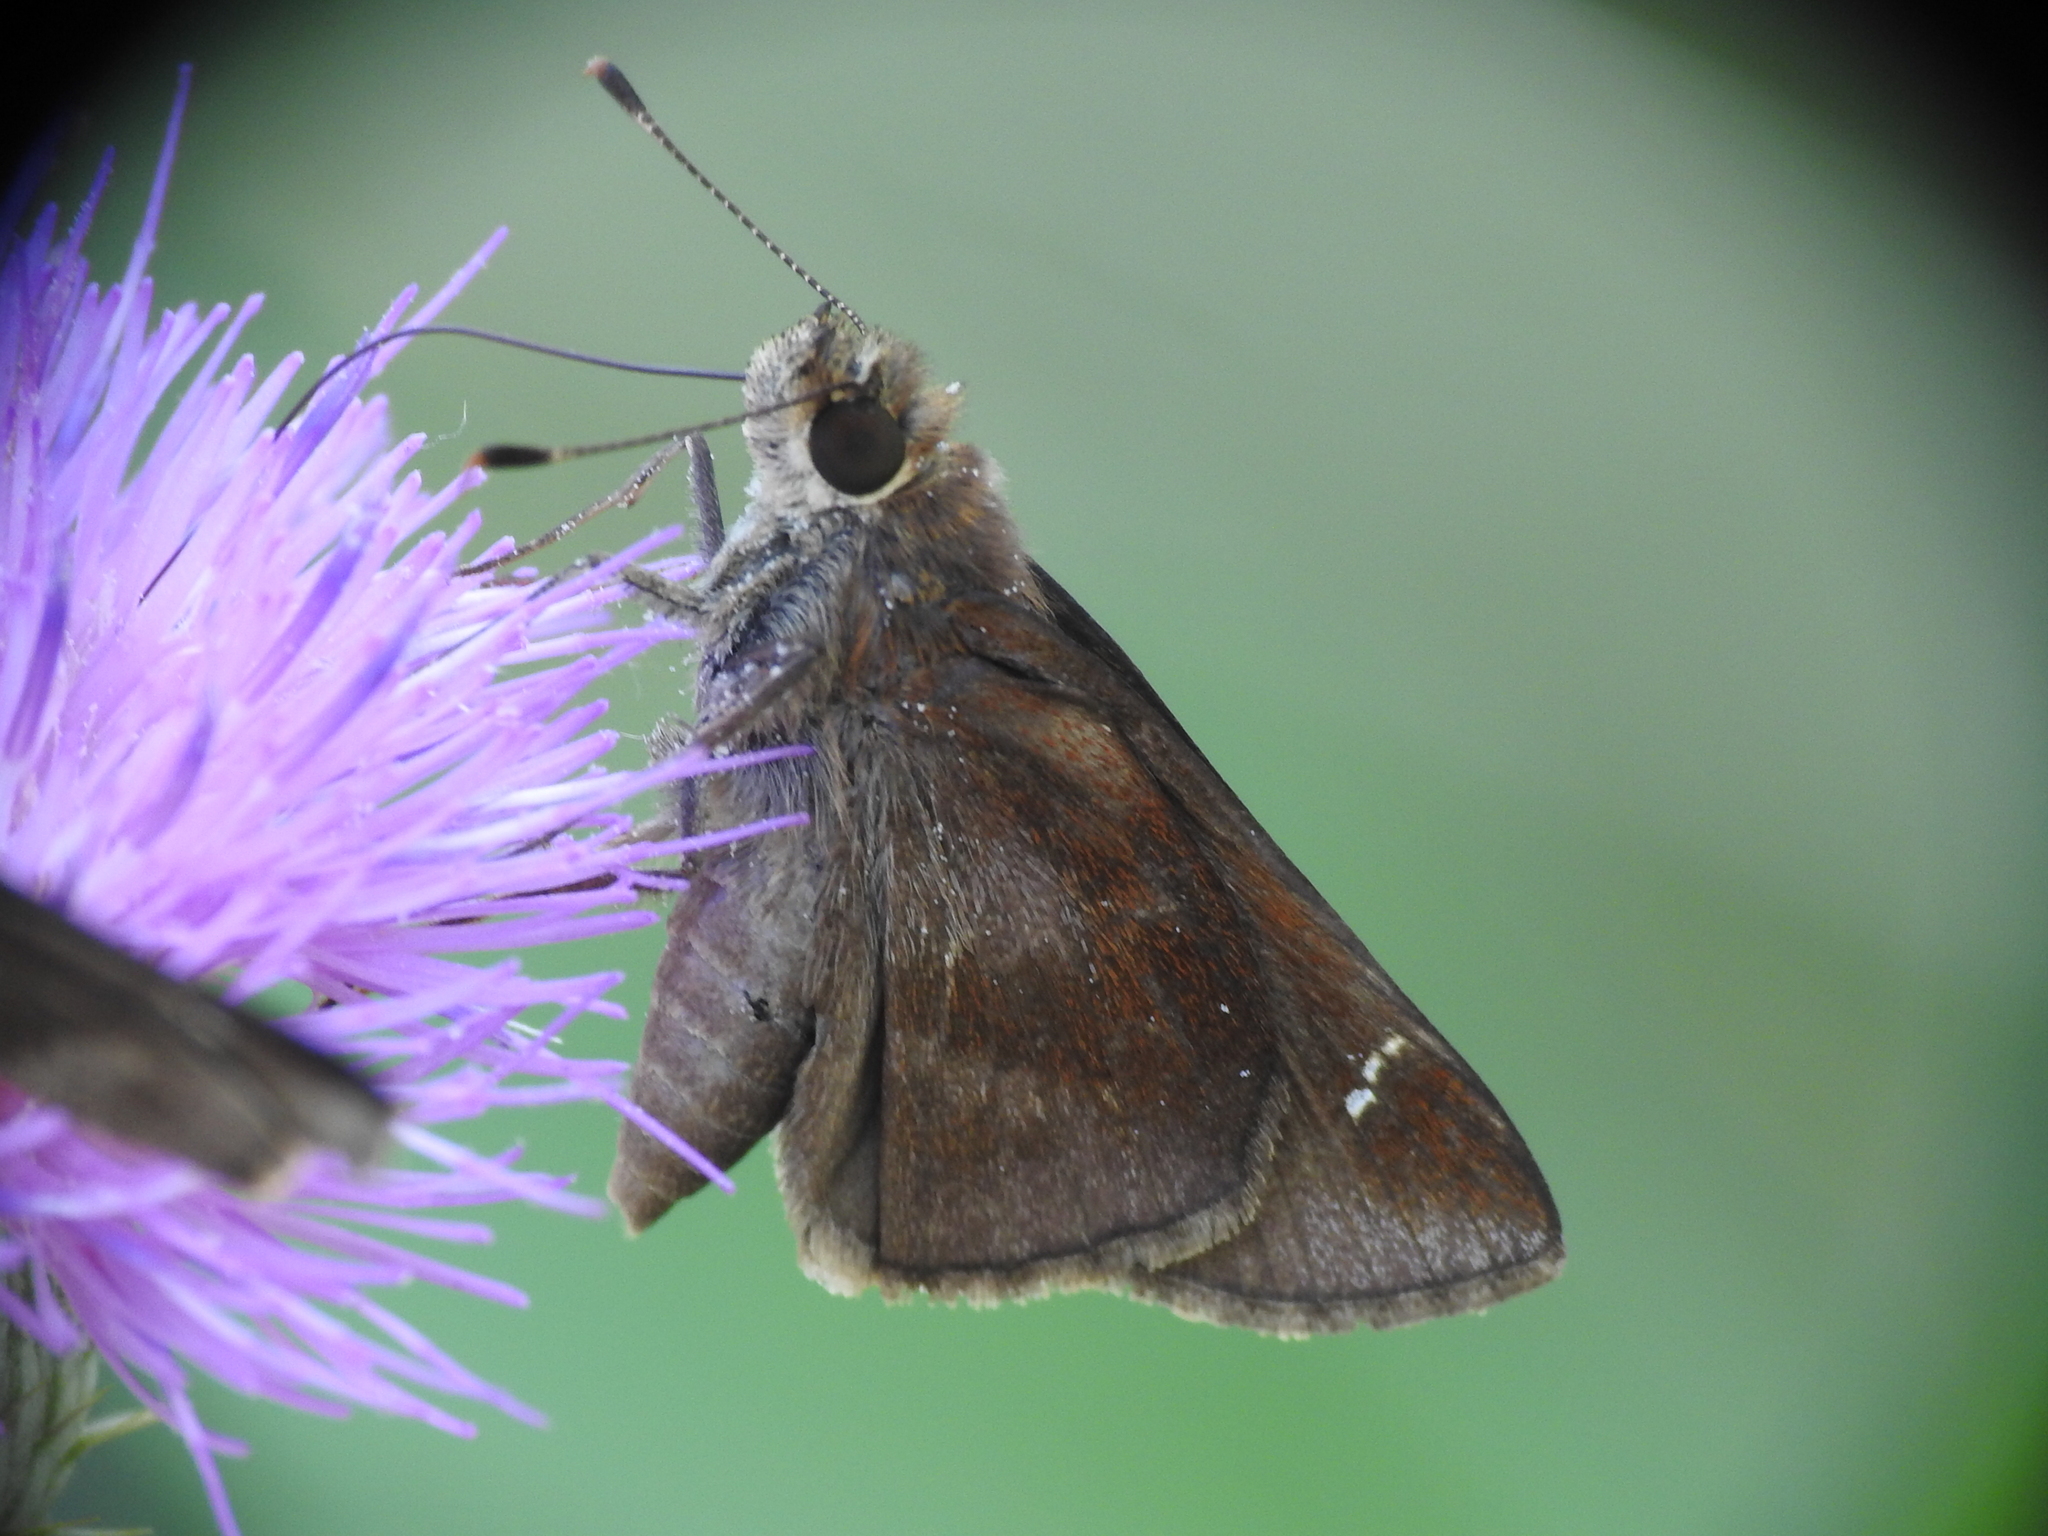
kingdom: Animalia
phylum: Arthropoda
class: Insecta
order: Lepidoptera
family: Hesperiidae
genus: Lerema
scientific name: Lerema accius
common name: Clouded skipper
